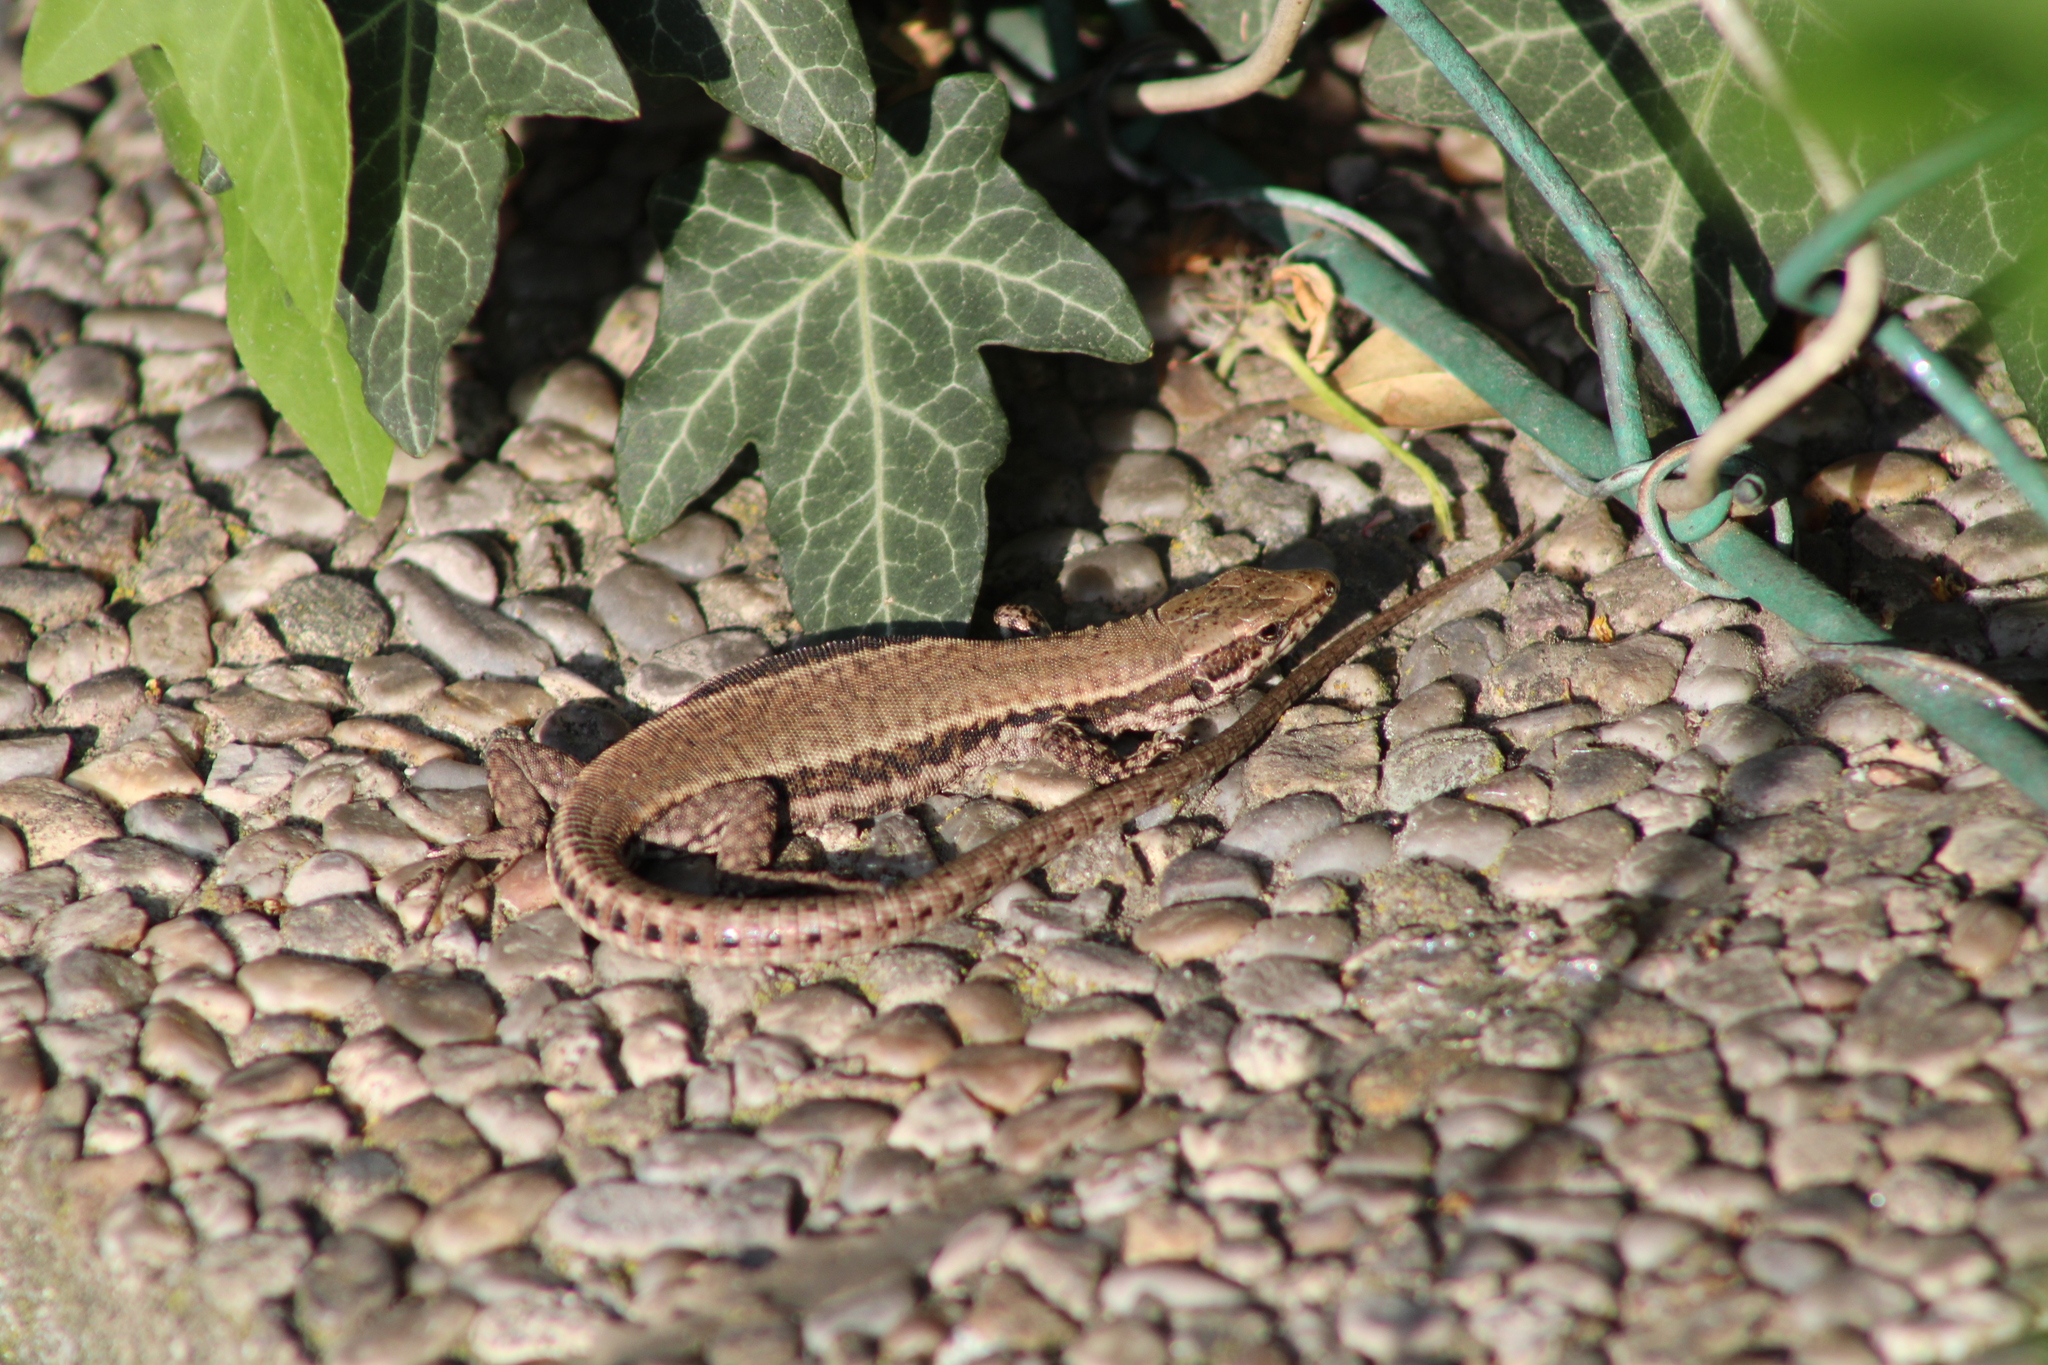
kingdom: Animalia
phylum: Chordata
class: Squamata
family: Lacertidae
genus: Podarcis
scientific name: Podarcis muralis
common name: Common wall lizard
